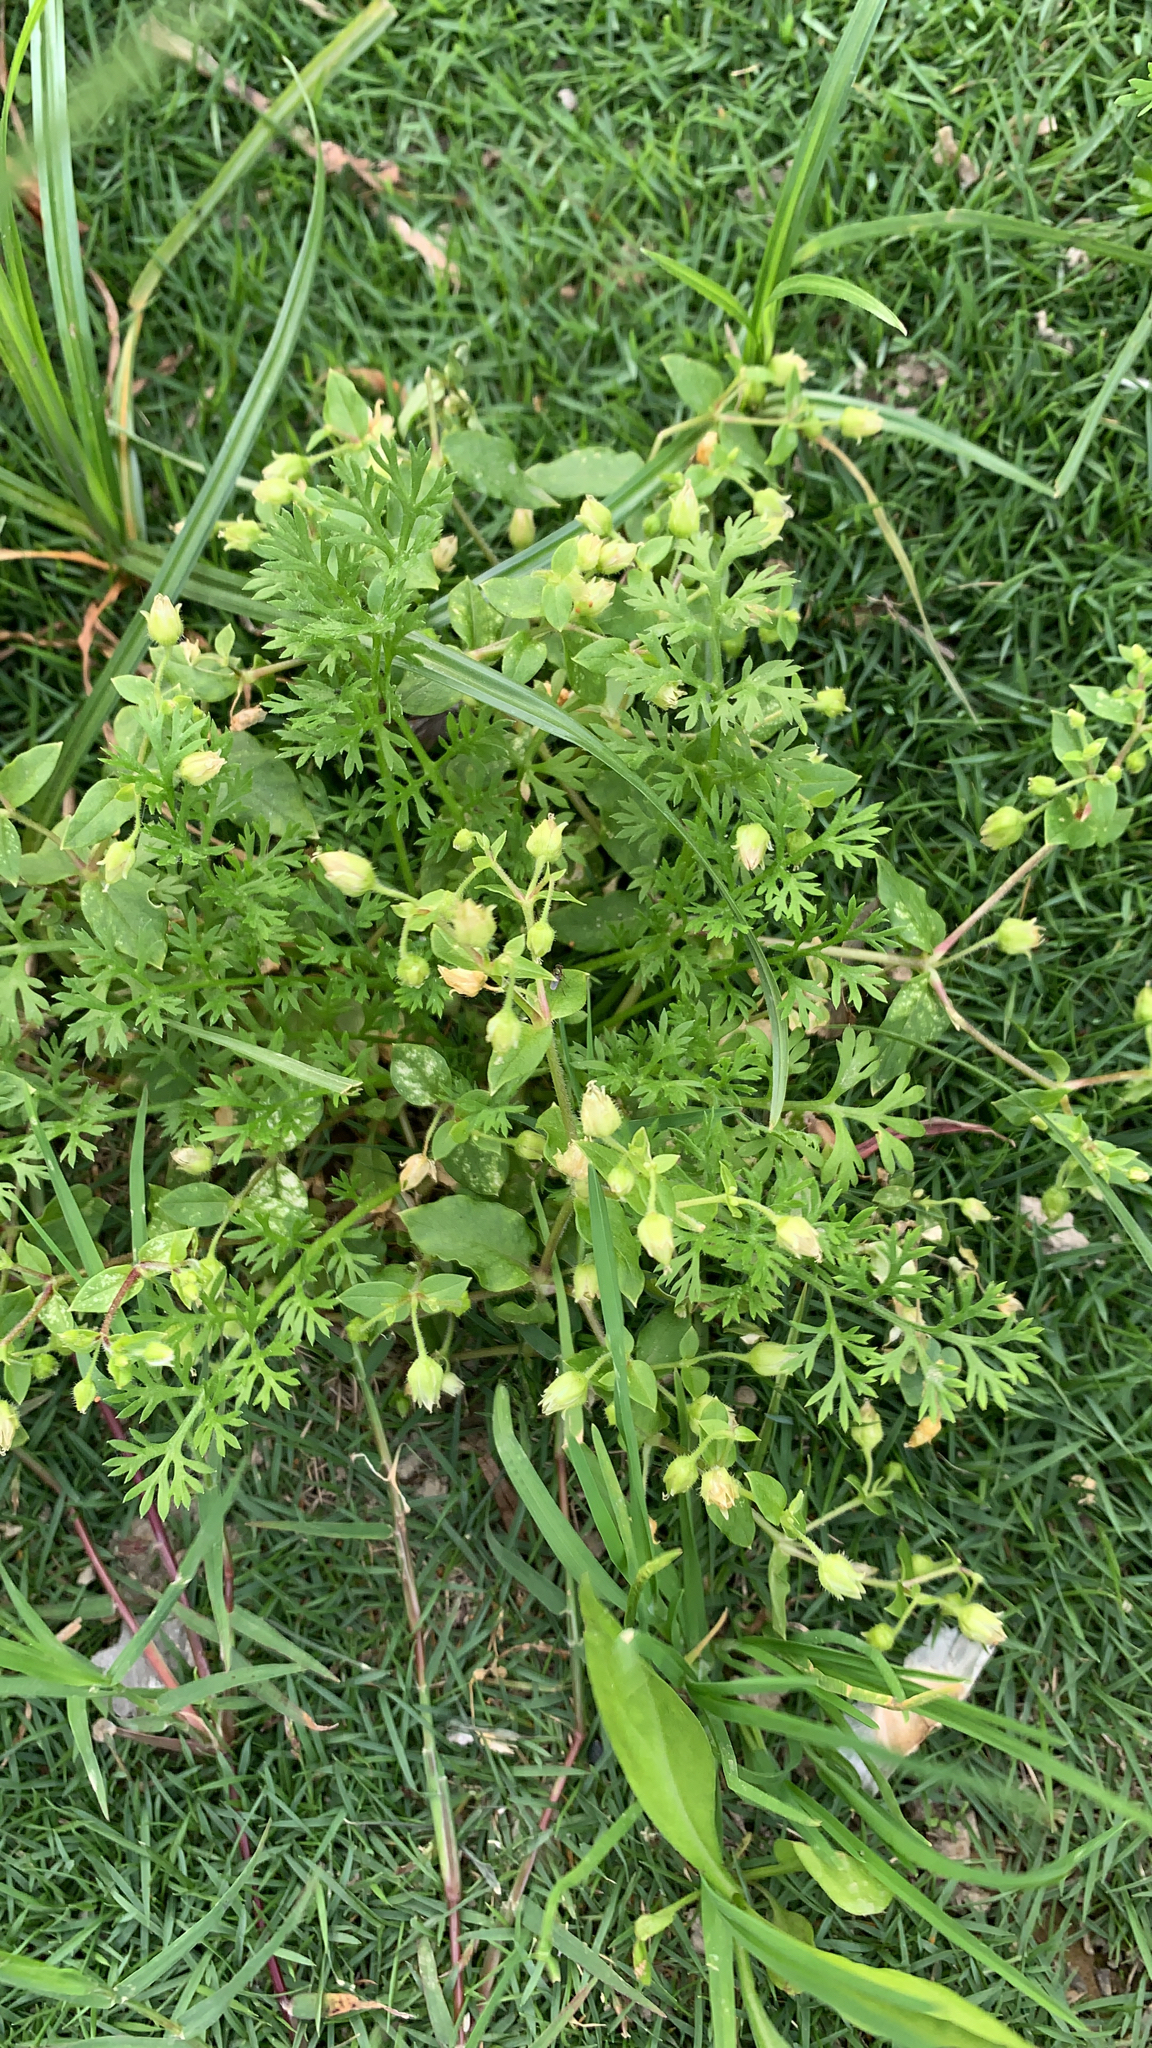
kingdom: Plantae
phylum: Tracheophyta
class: Magnoliopsida
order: Asterales
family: Asteraceae
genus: Soliva
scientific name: Soliva anthemifolia
